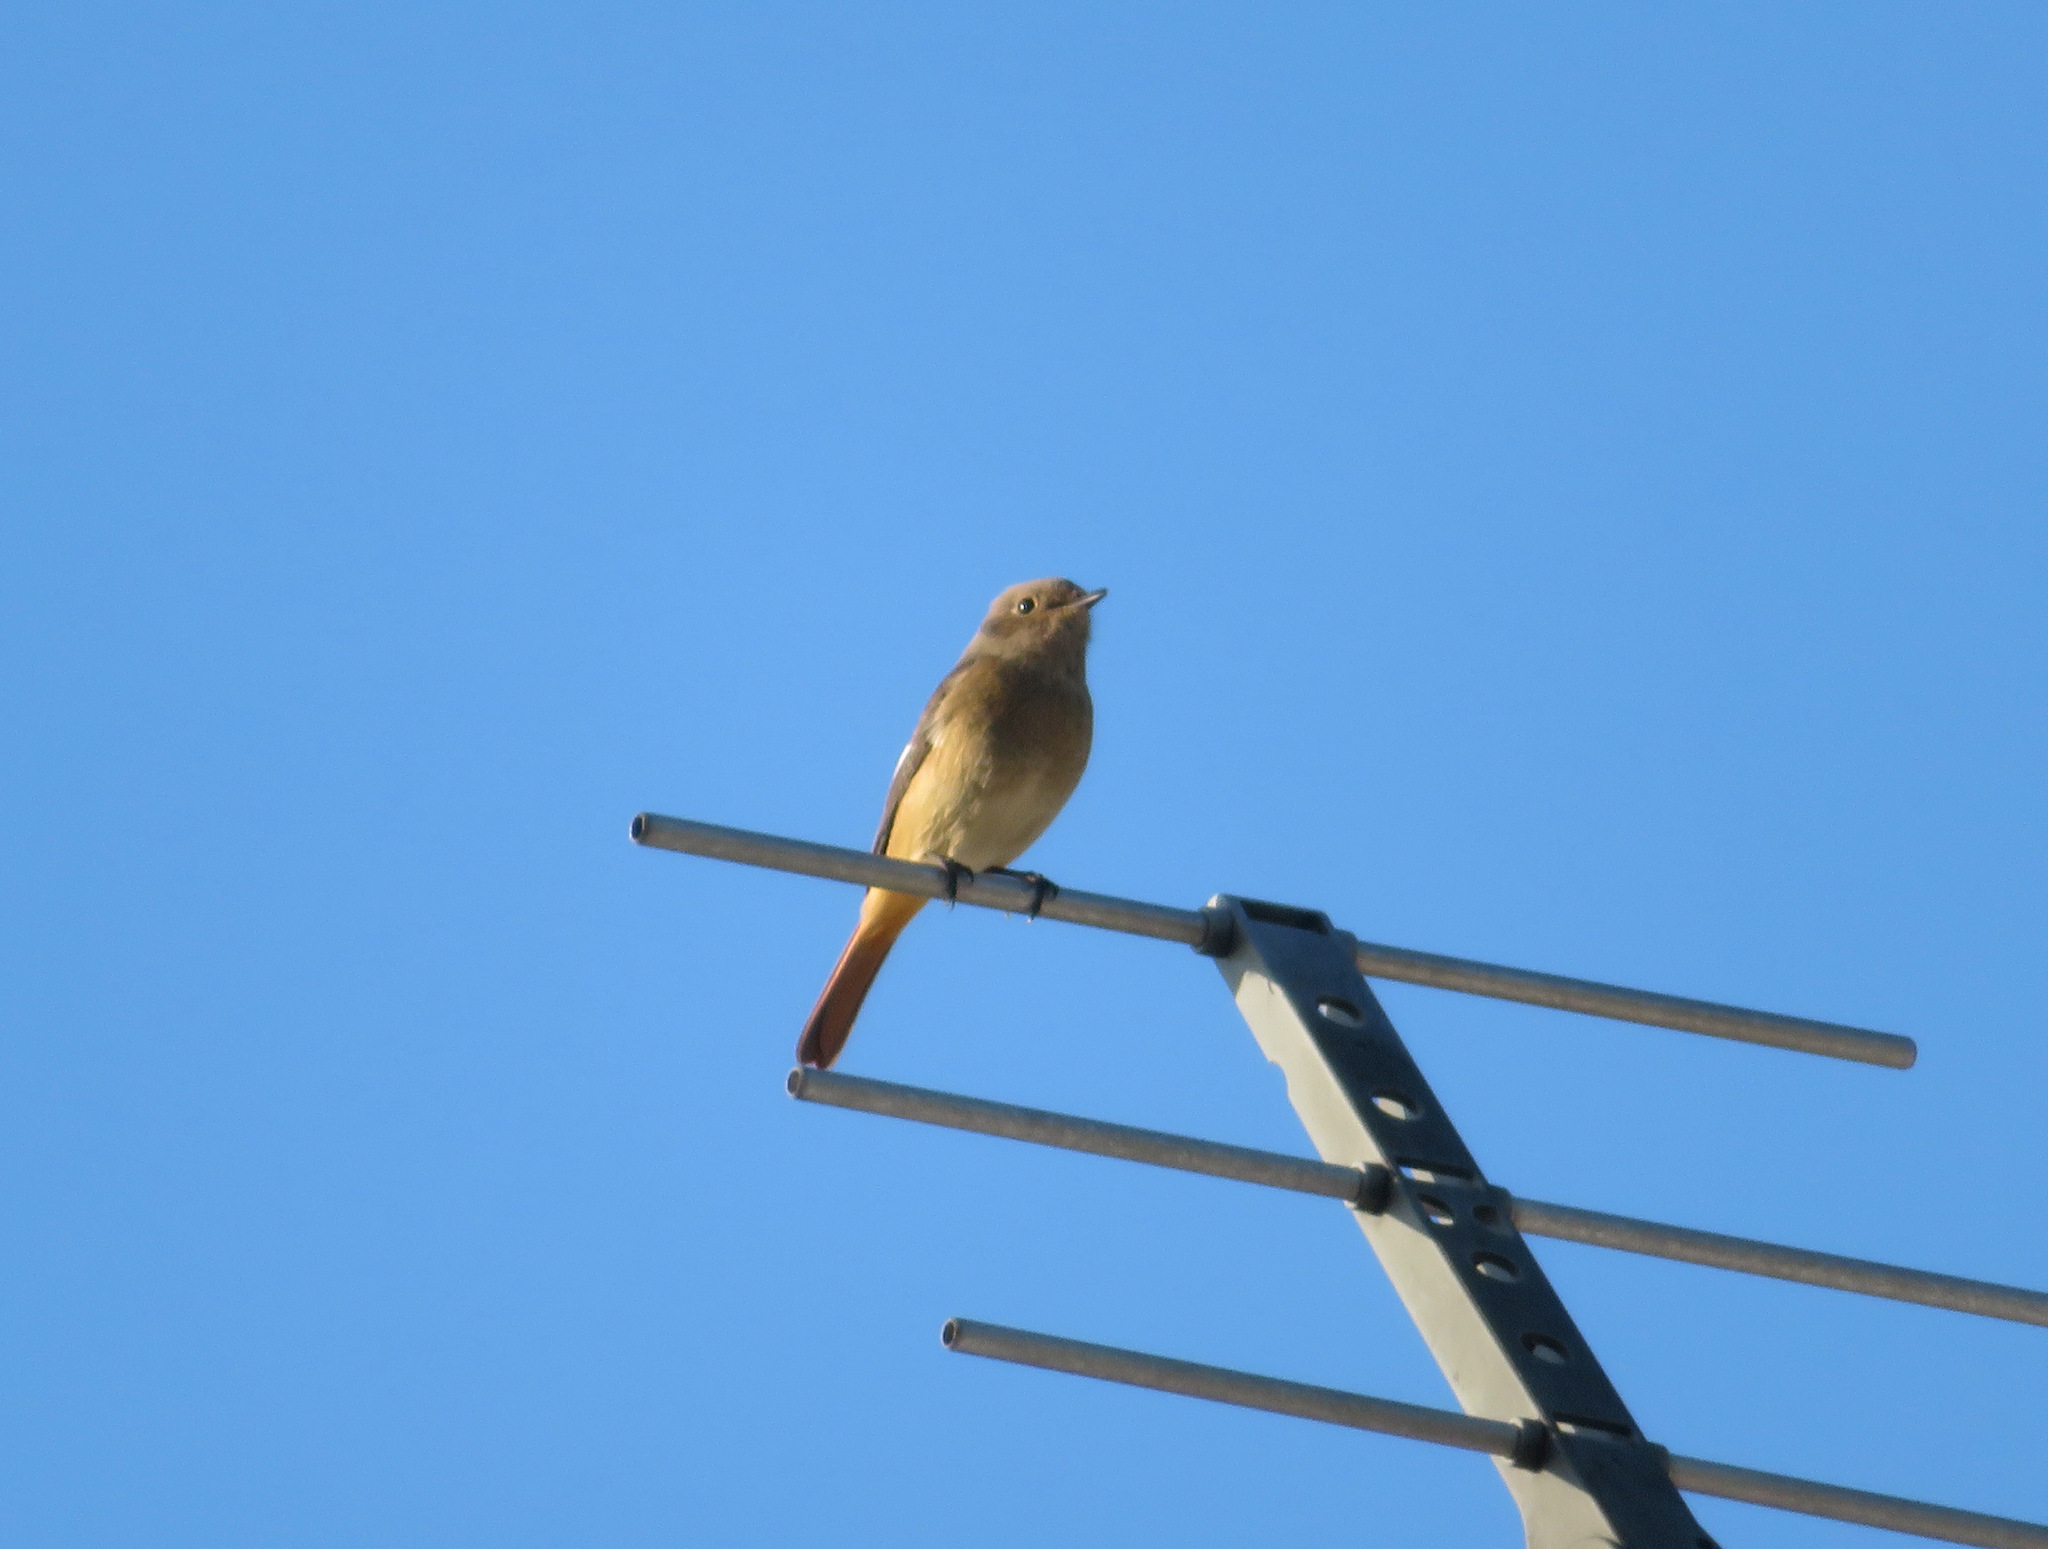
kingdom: Animalia
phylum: Chordata
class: Aves
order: Passeriformes
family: Muscicapidae
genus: Phoenicurus
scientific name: Phoenicurus auroreus
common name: Daurian redstart
